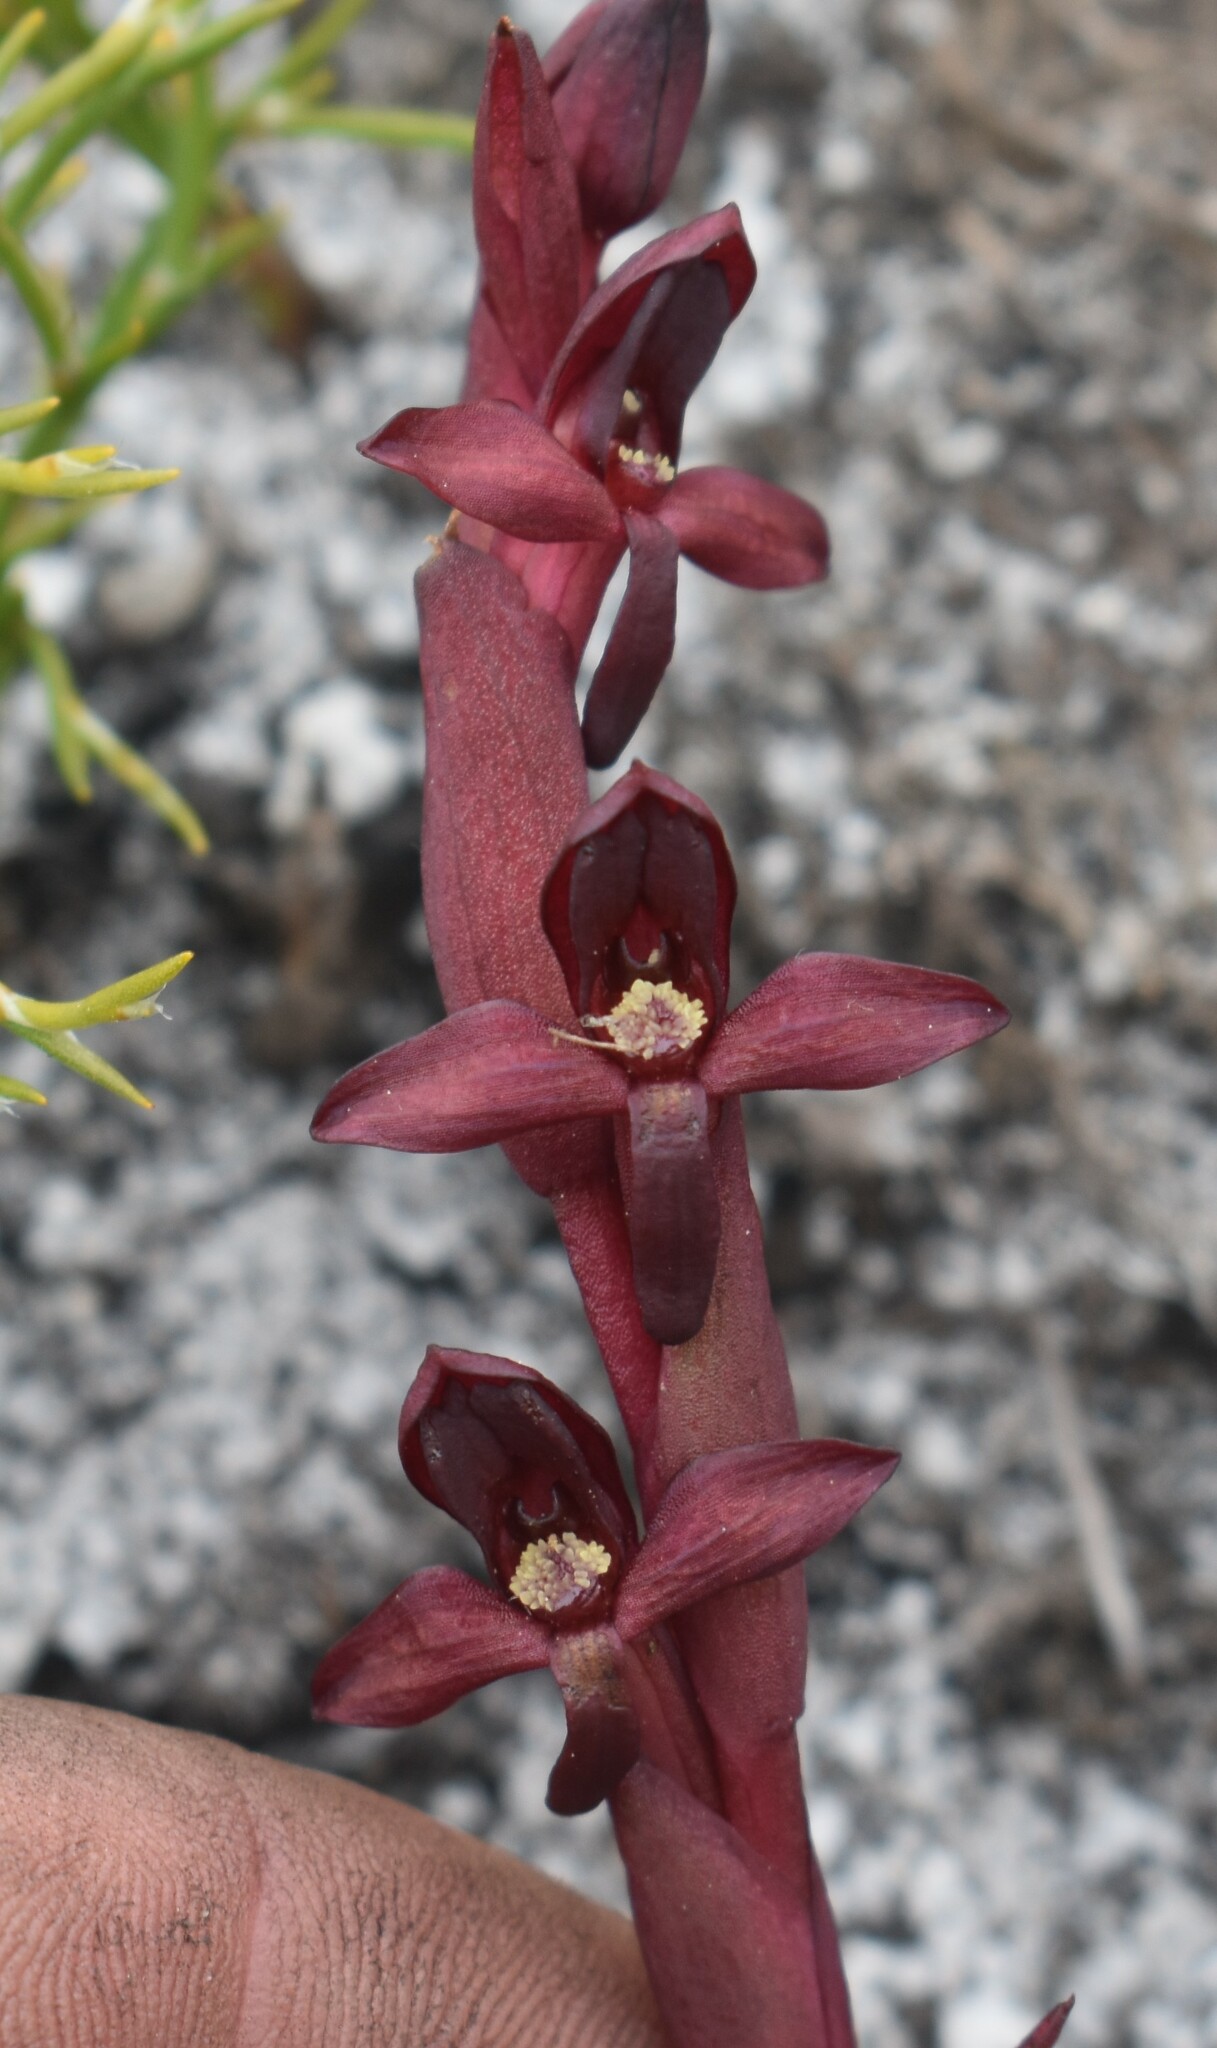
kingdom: Plantae
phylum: Tracheophyta
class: Liliopsida
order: Asparagales
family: Orchidaceae
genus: Disa
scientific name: Disa ophrydea
